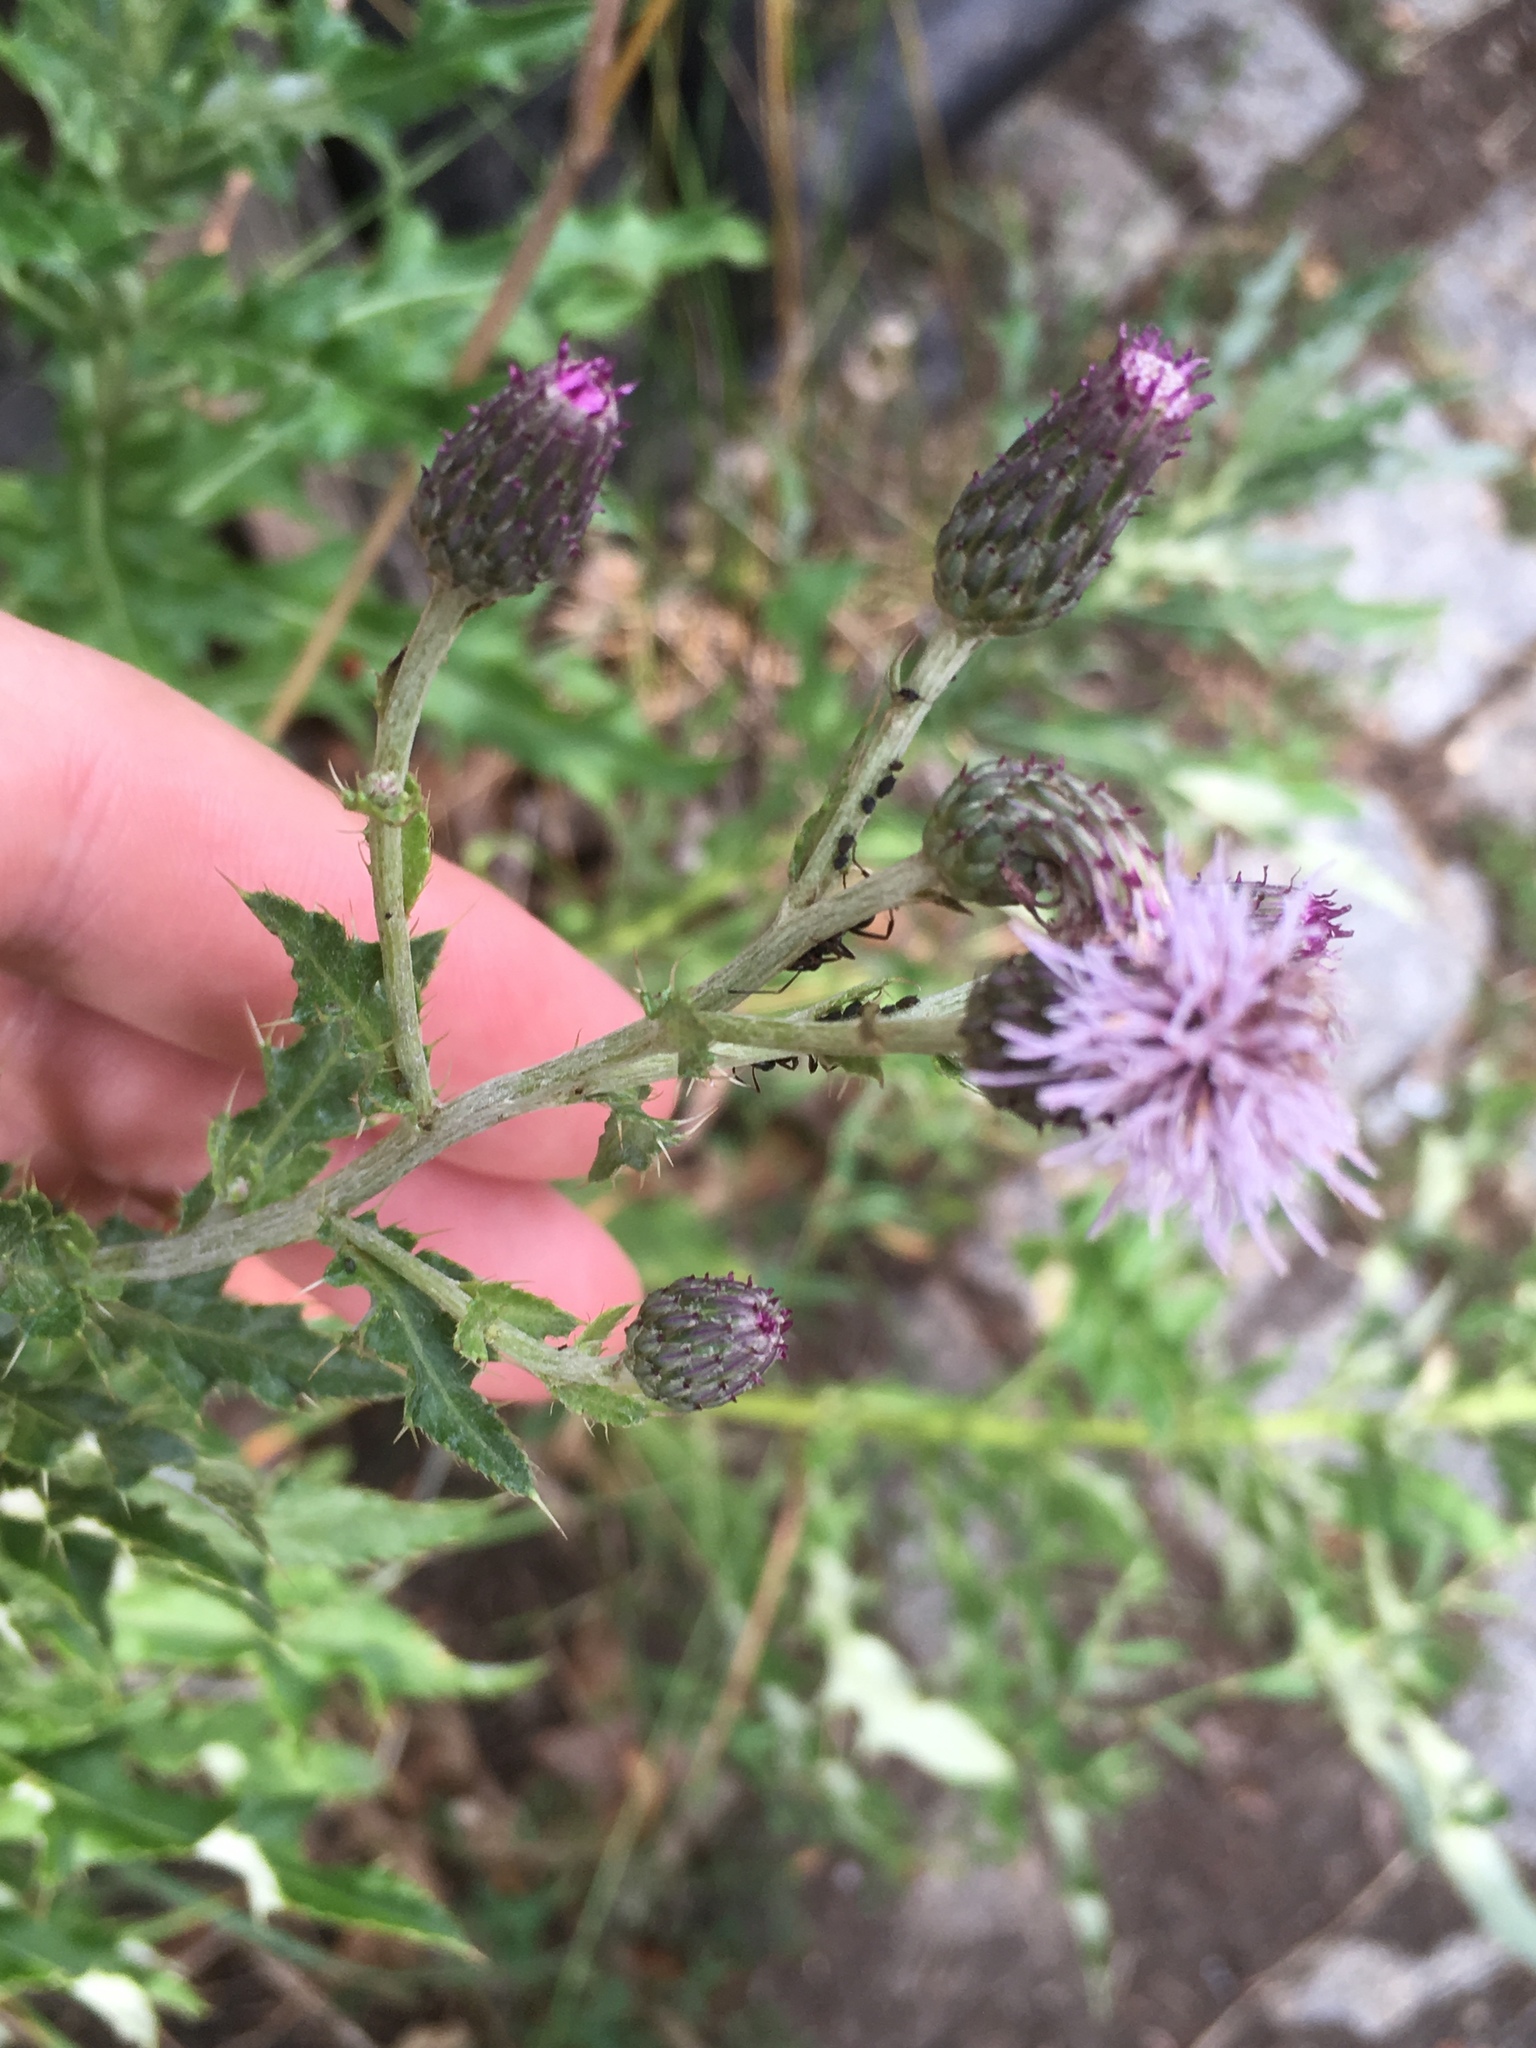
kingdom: Plantae
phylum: Tracheophyta
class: Magnoliopsida
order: Asterales
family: Asteraceae
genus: Cirsium
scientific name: Cirsium arvense
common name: Creeping thistle
